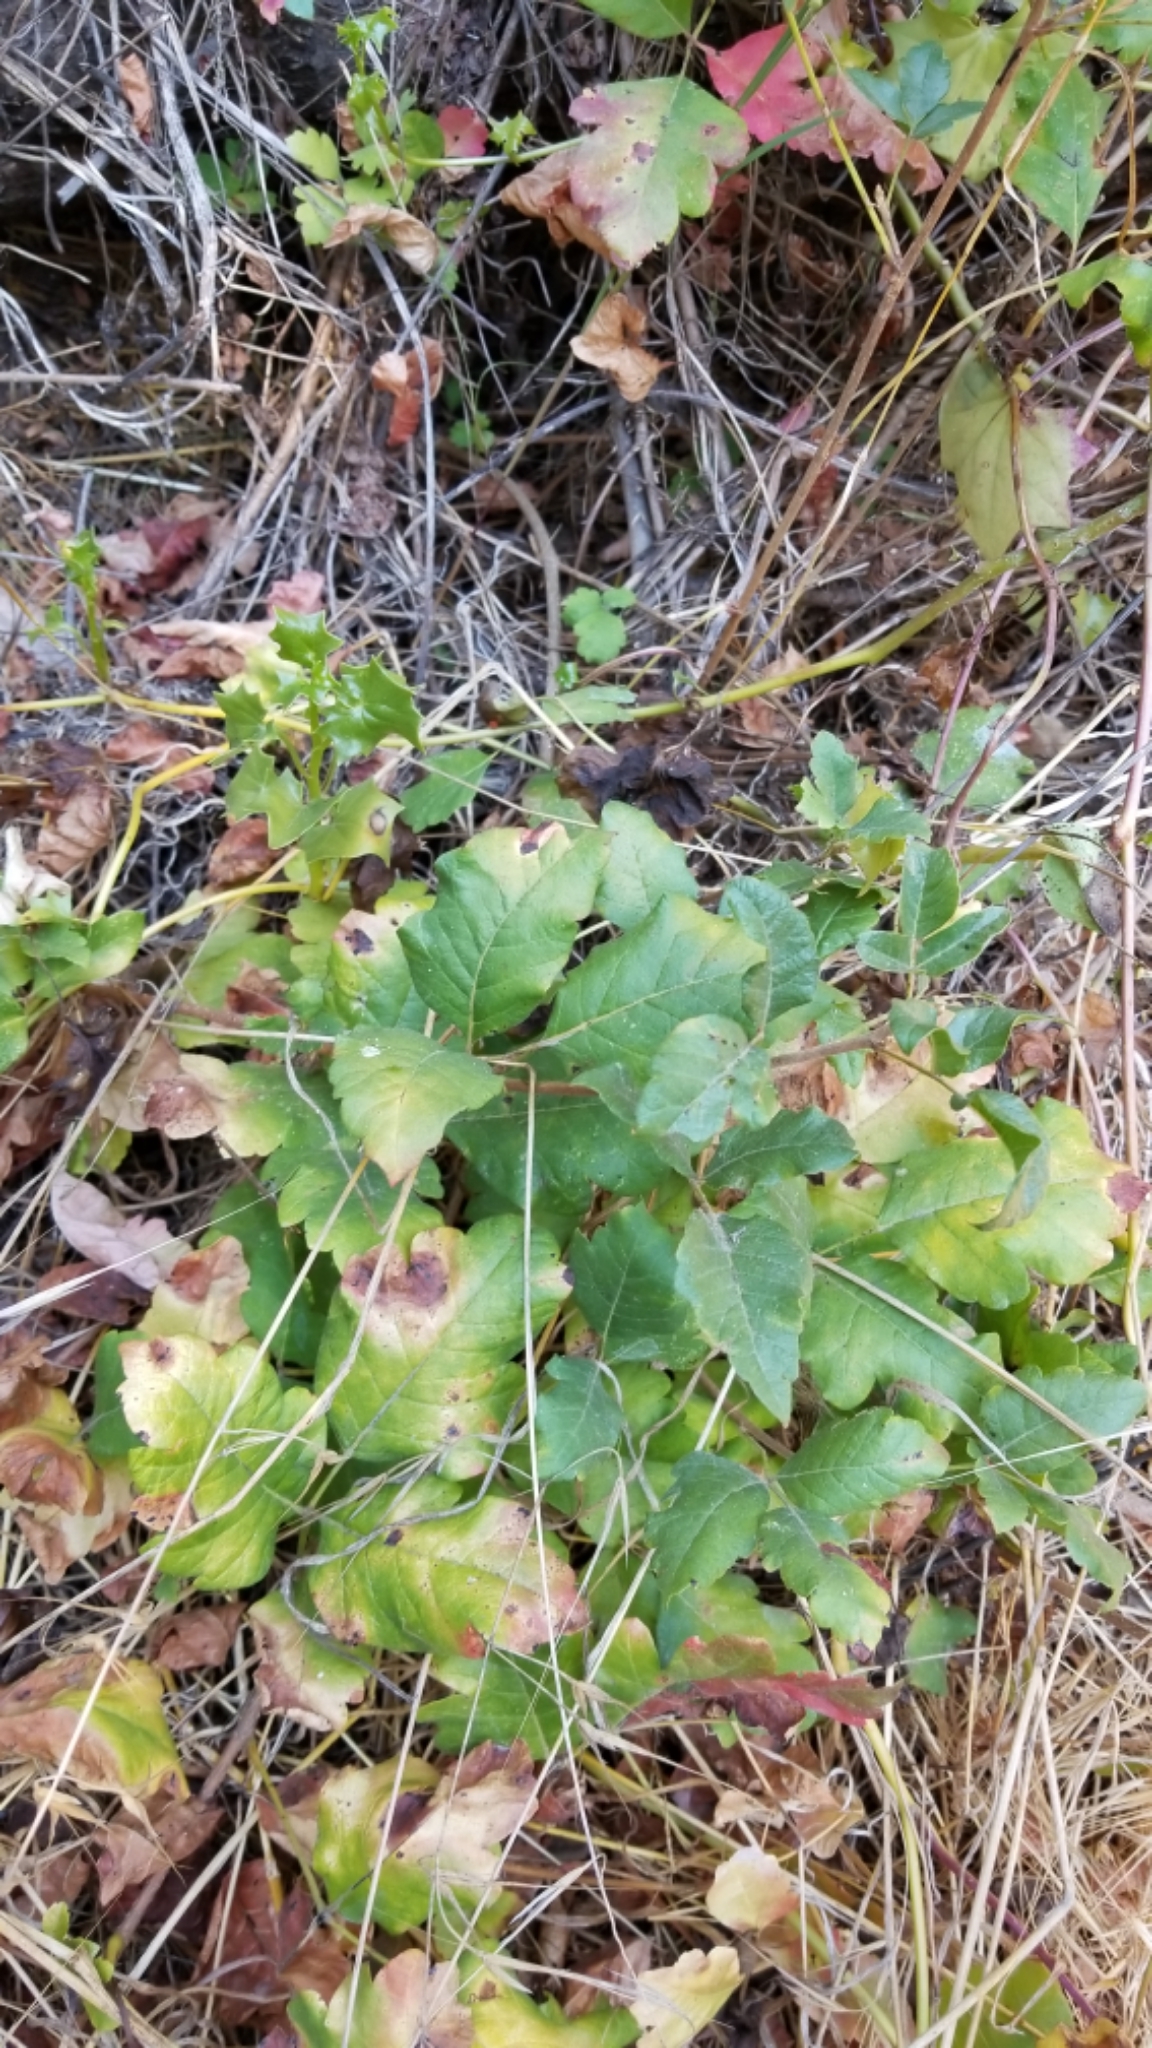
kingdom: Plantae
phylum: Tracheophyta
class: Magnoliopsida
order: Sapindales
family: Anacardiaceae
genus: Toxicodendron
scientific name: Toxicodendron diversilobum
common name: Pacific poison-oak
